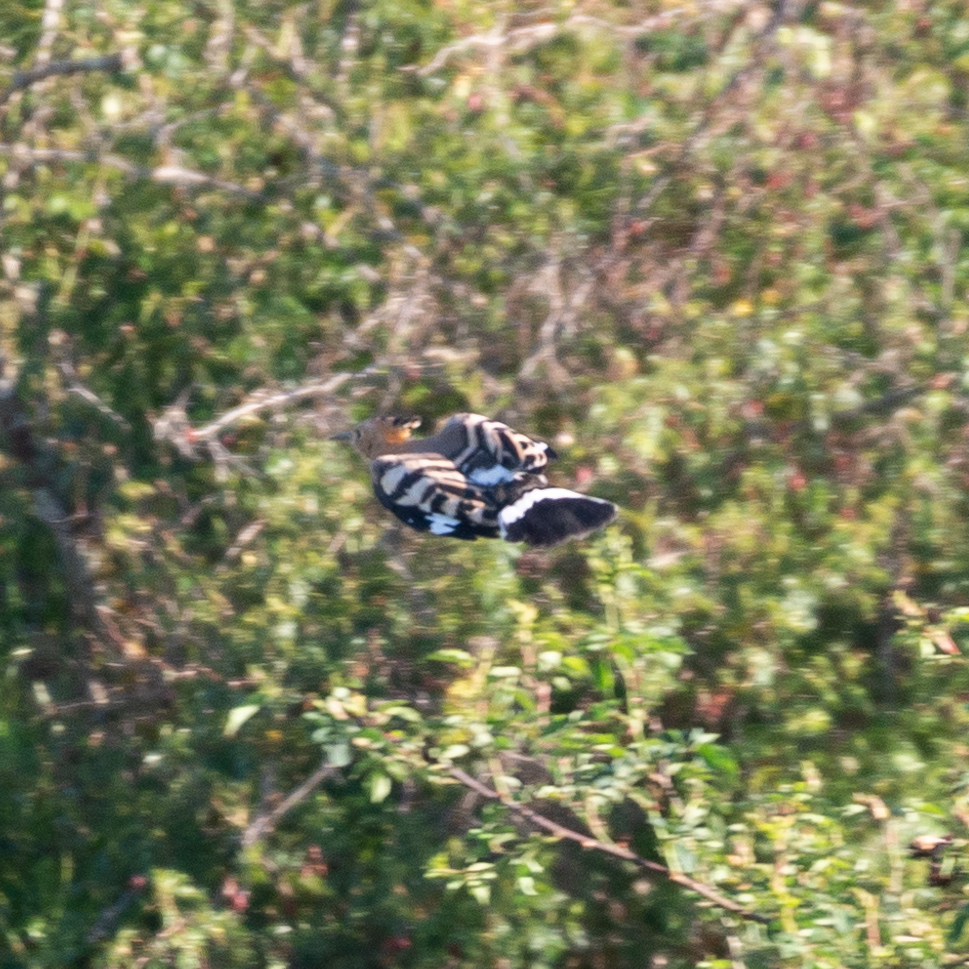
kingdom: Animalia
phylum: Chordata
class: Aves
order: Bucerotiformes
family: Upupidae
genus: Upupa
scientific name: Upupa epops
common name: Eurasian hoopoe
